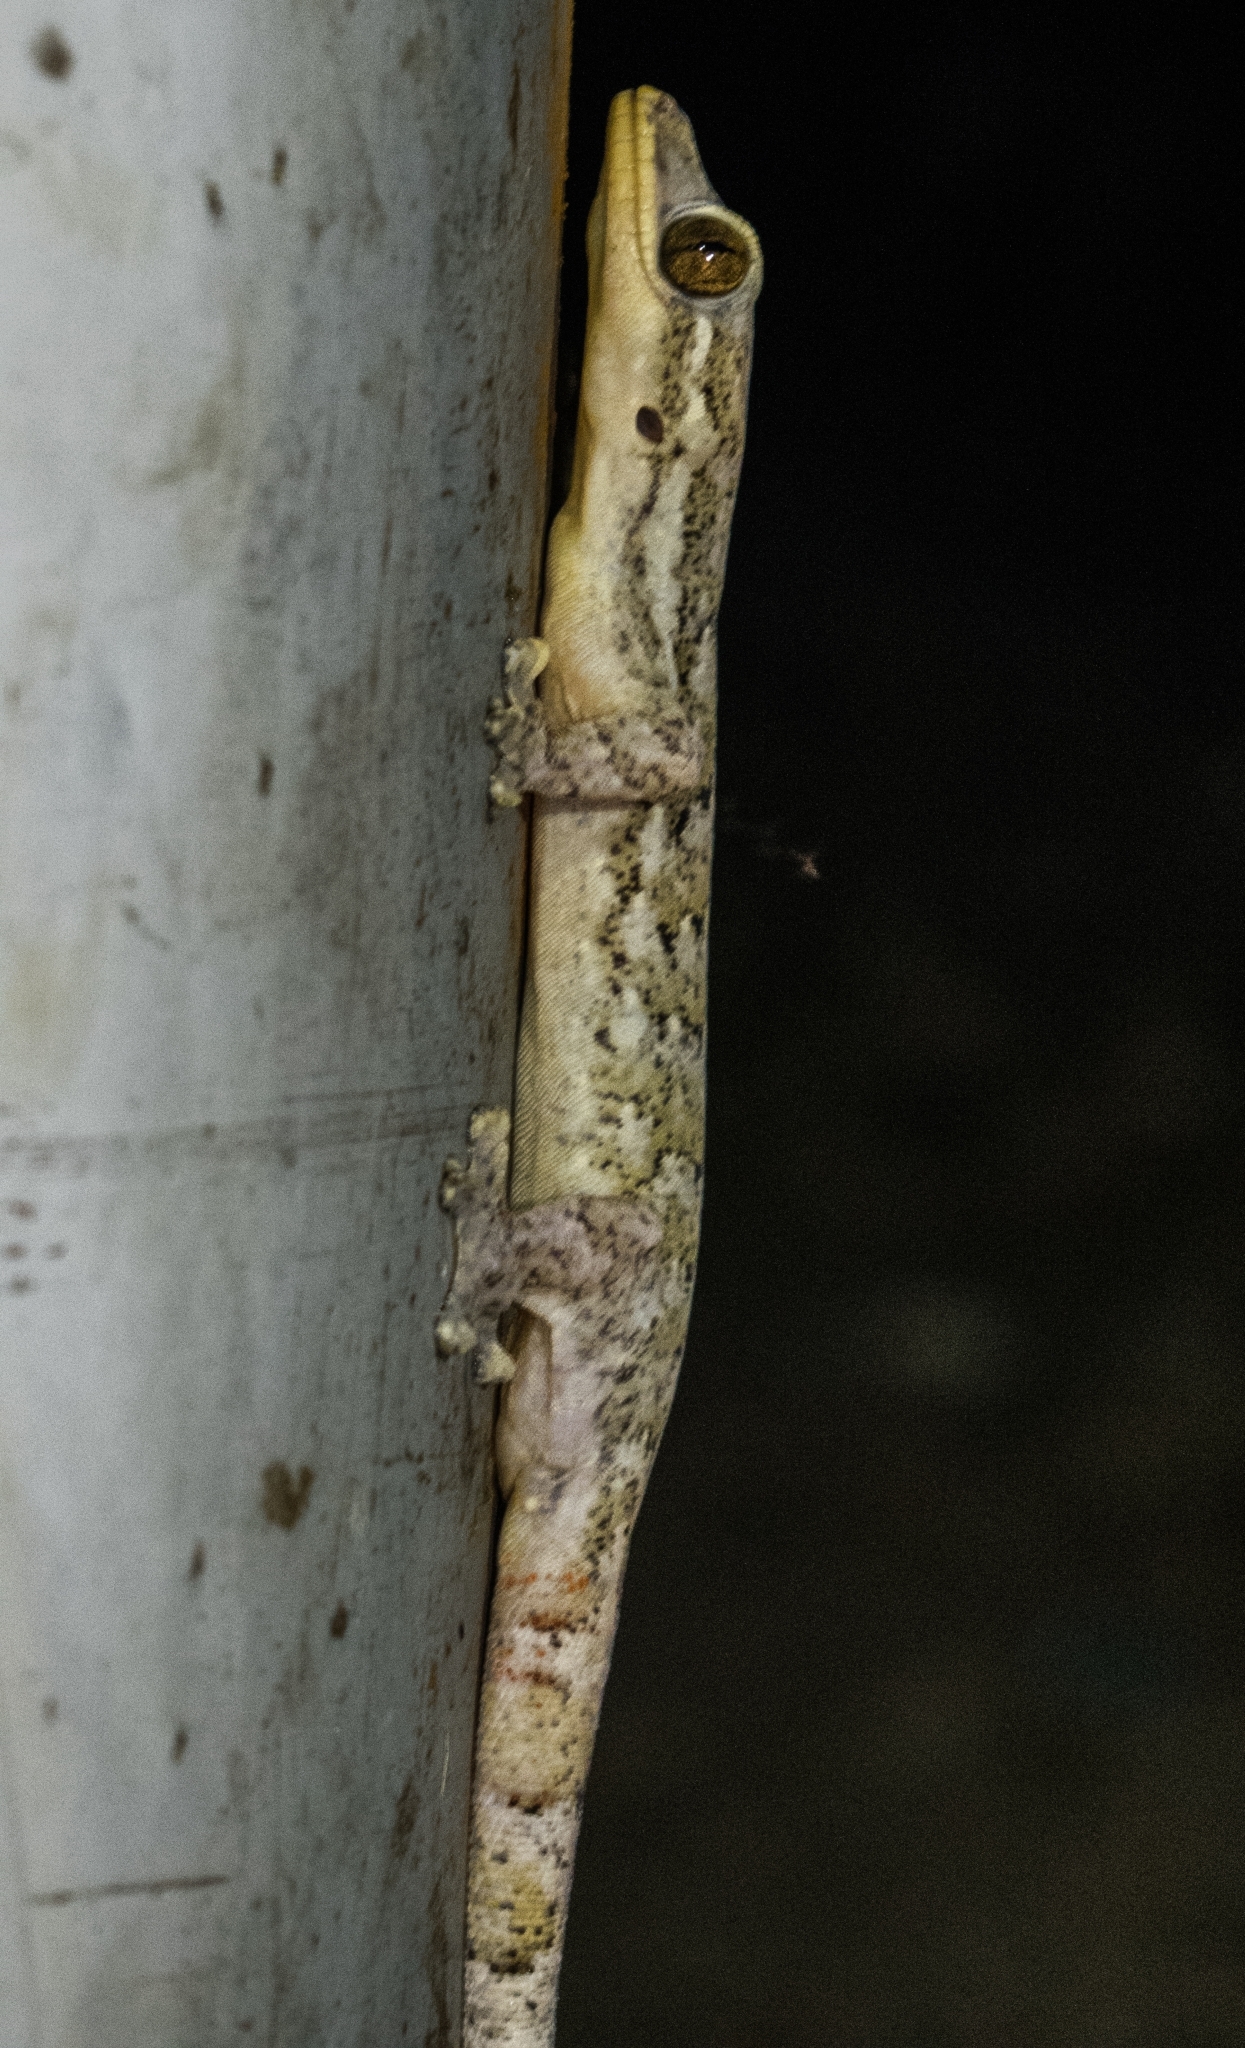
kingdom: Animalia
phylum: Chordata
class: Squamata
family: Phyllodactylidae
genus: Thecadactylus
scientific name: Thecadactylus rapicauda
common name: Turnip-tailed gecko
